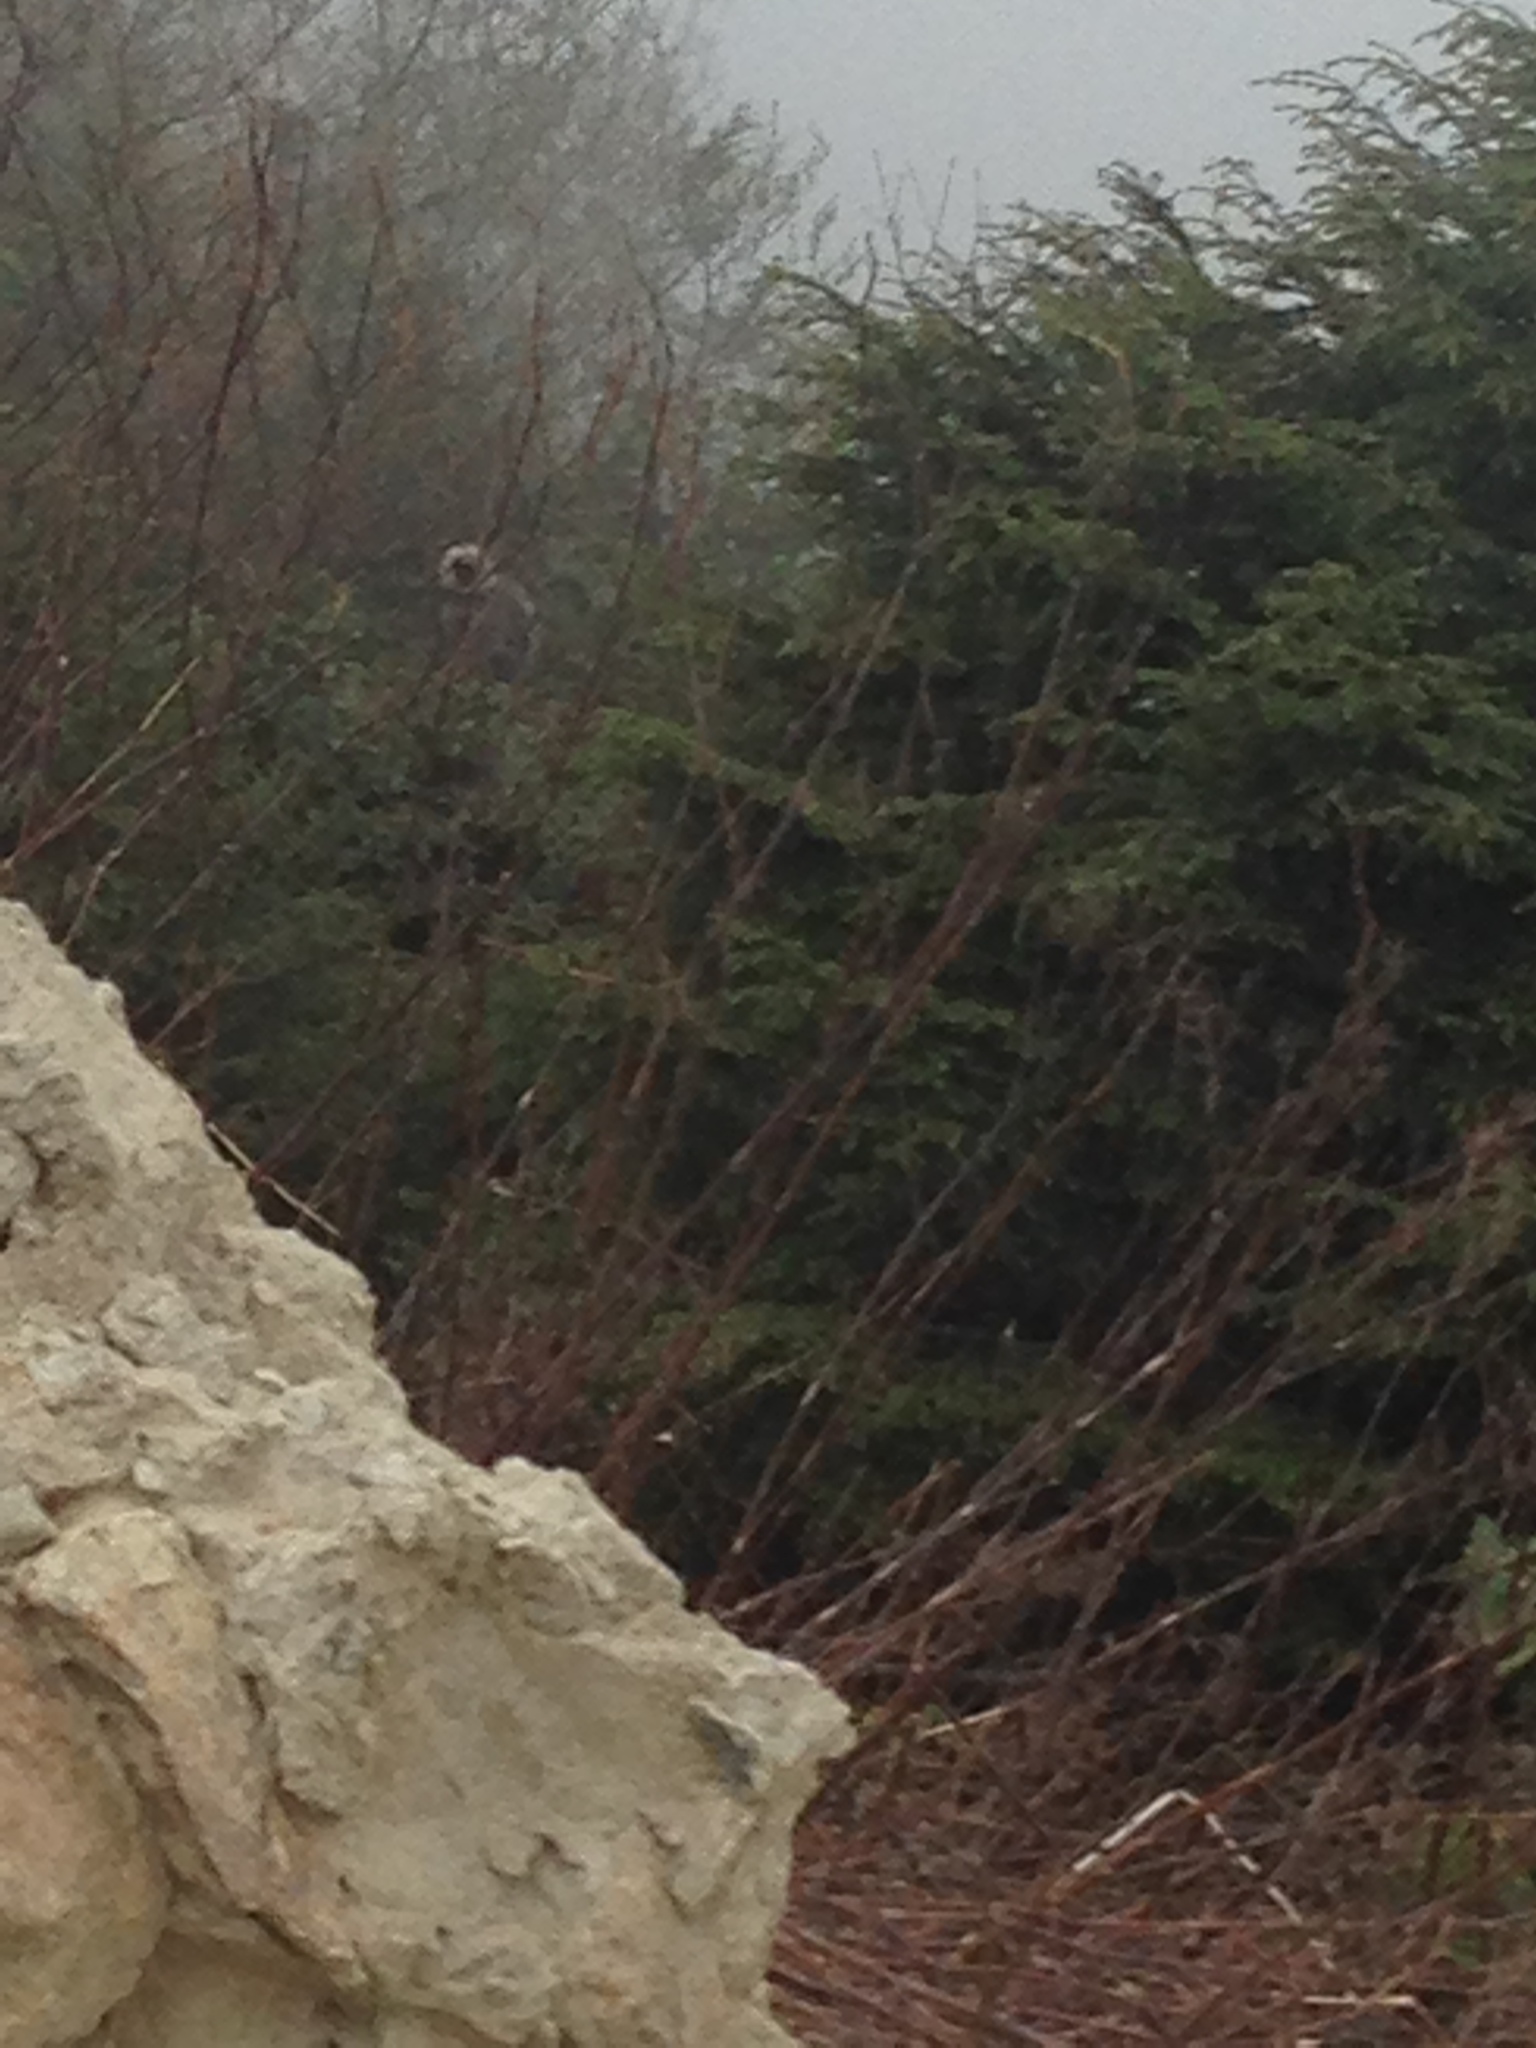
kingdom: Animalia
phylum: Chordata
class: Mammalia
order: Primates
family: Cercopithecidae
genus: Semnopithecus
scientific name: Semnopithecus schistaceus
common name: Nepal gray langur
